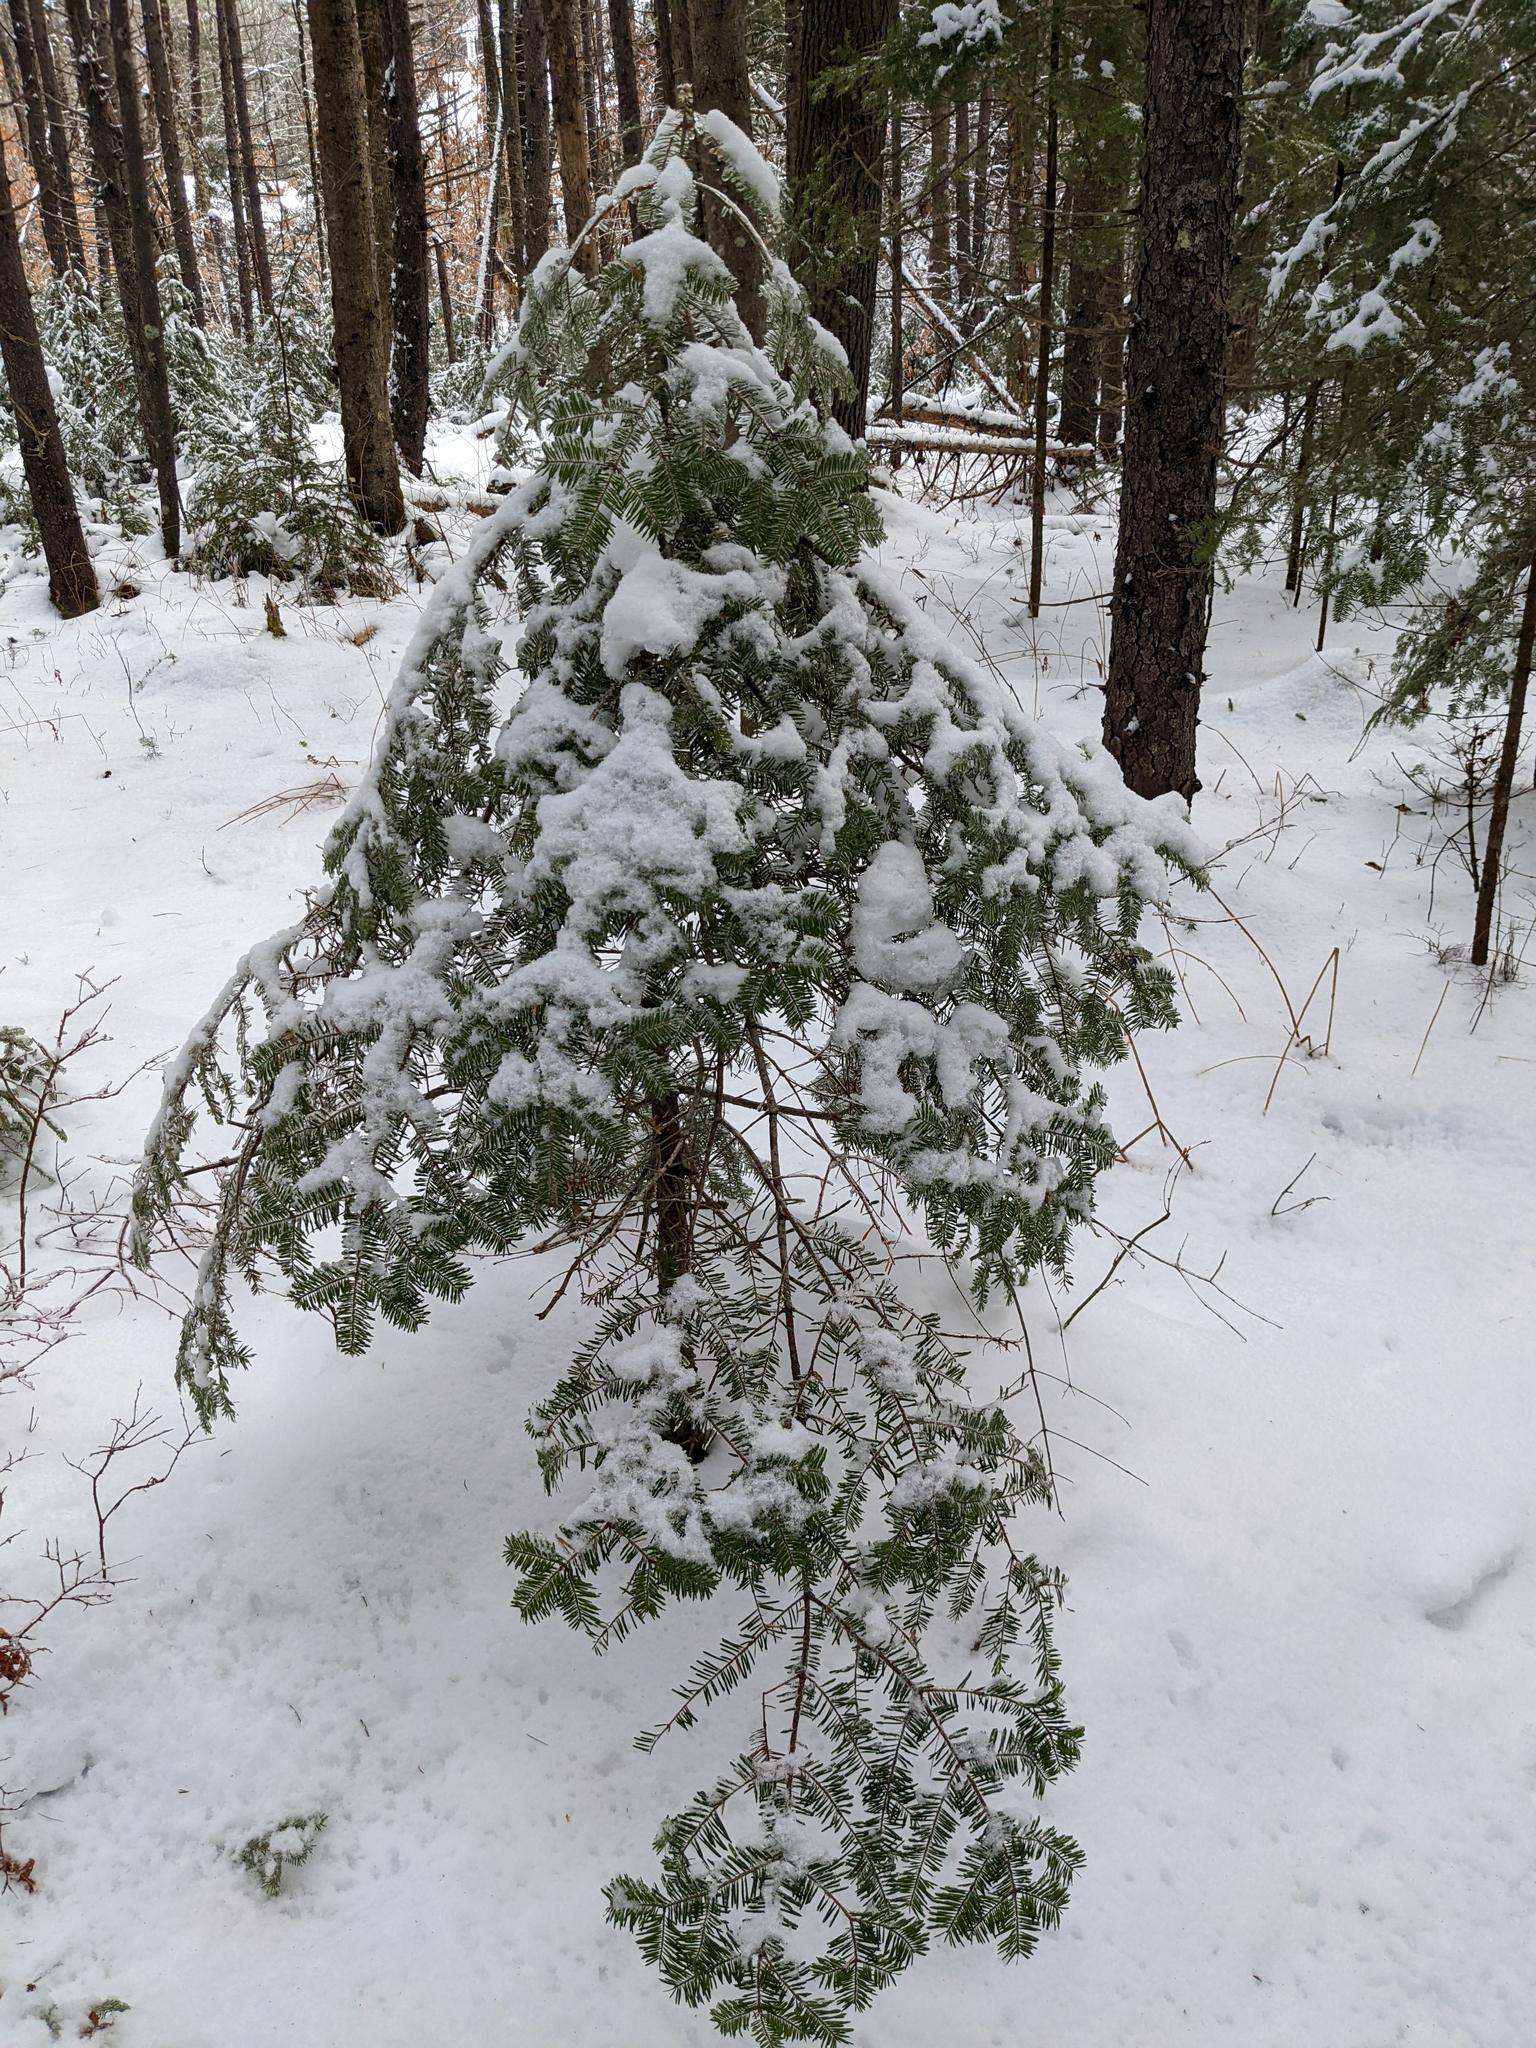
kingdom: Plantae
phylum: Tracheophyta
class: Pinopsida
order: Pinales
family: Pinaceae
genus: Abies
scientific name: Abies balsamea
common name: Balsam fir
